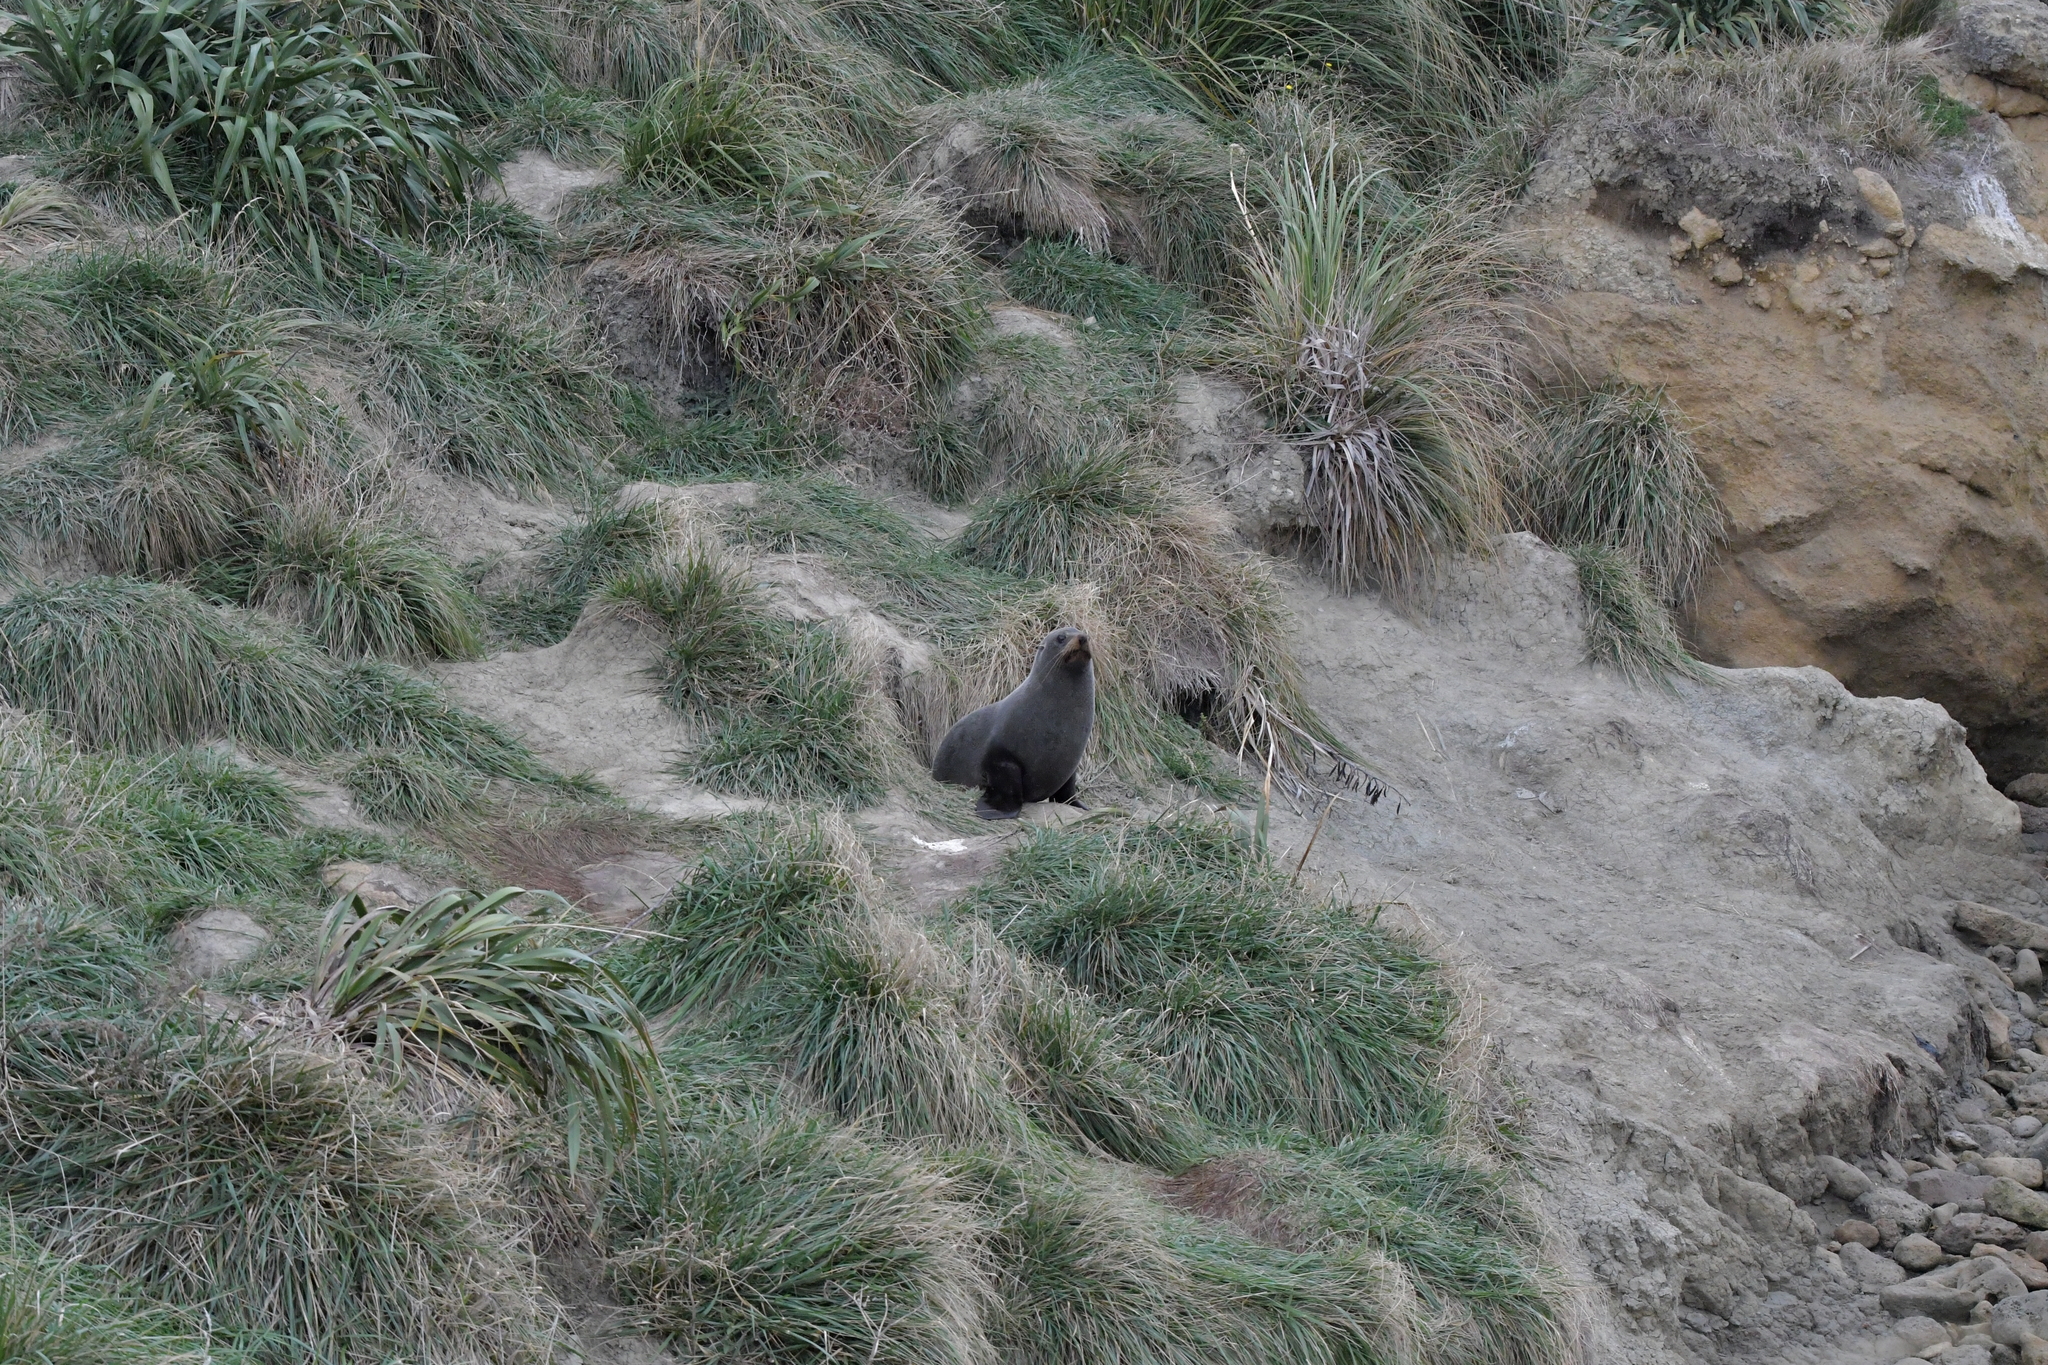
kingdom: Animalia
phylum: Chordata
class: Mammalia
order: Carnivora
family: Otariidae
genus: Arctocephalus
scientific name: Arctocephalus forsteri
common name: New zealand fur seal
